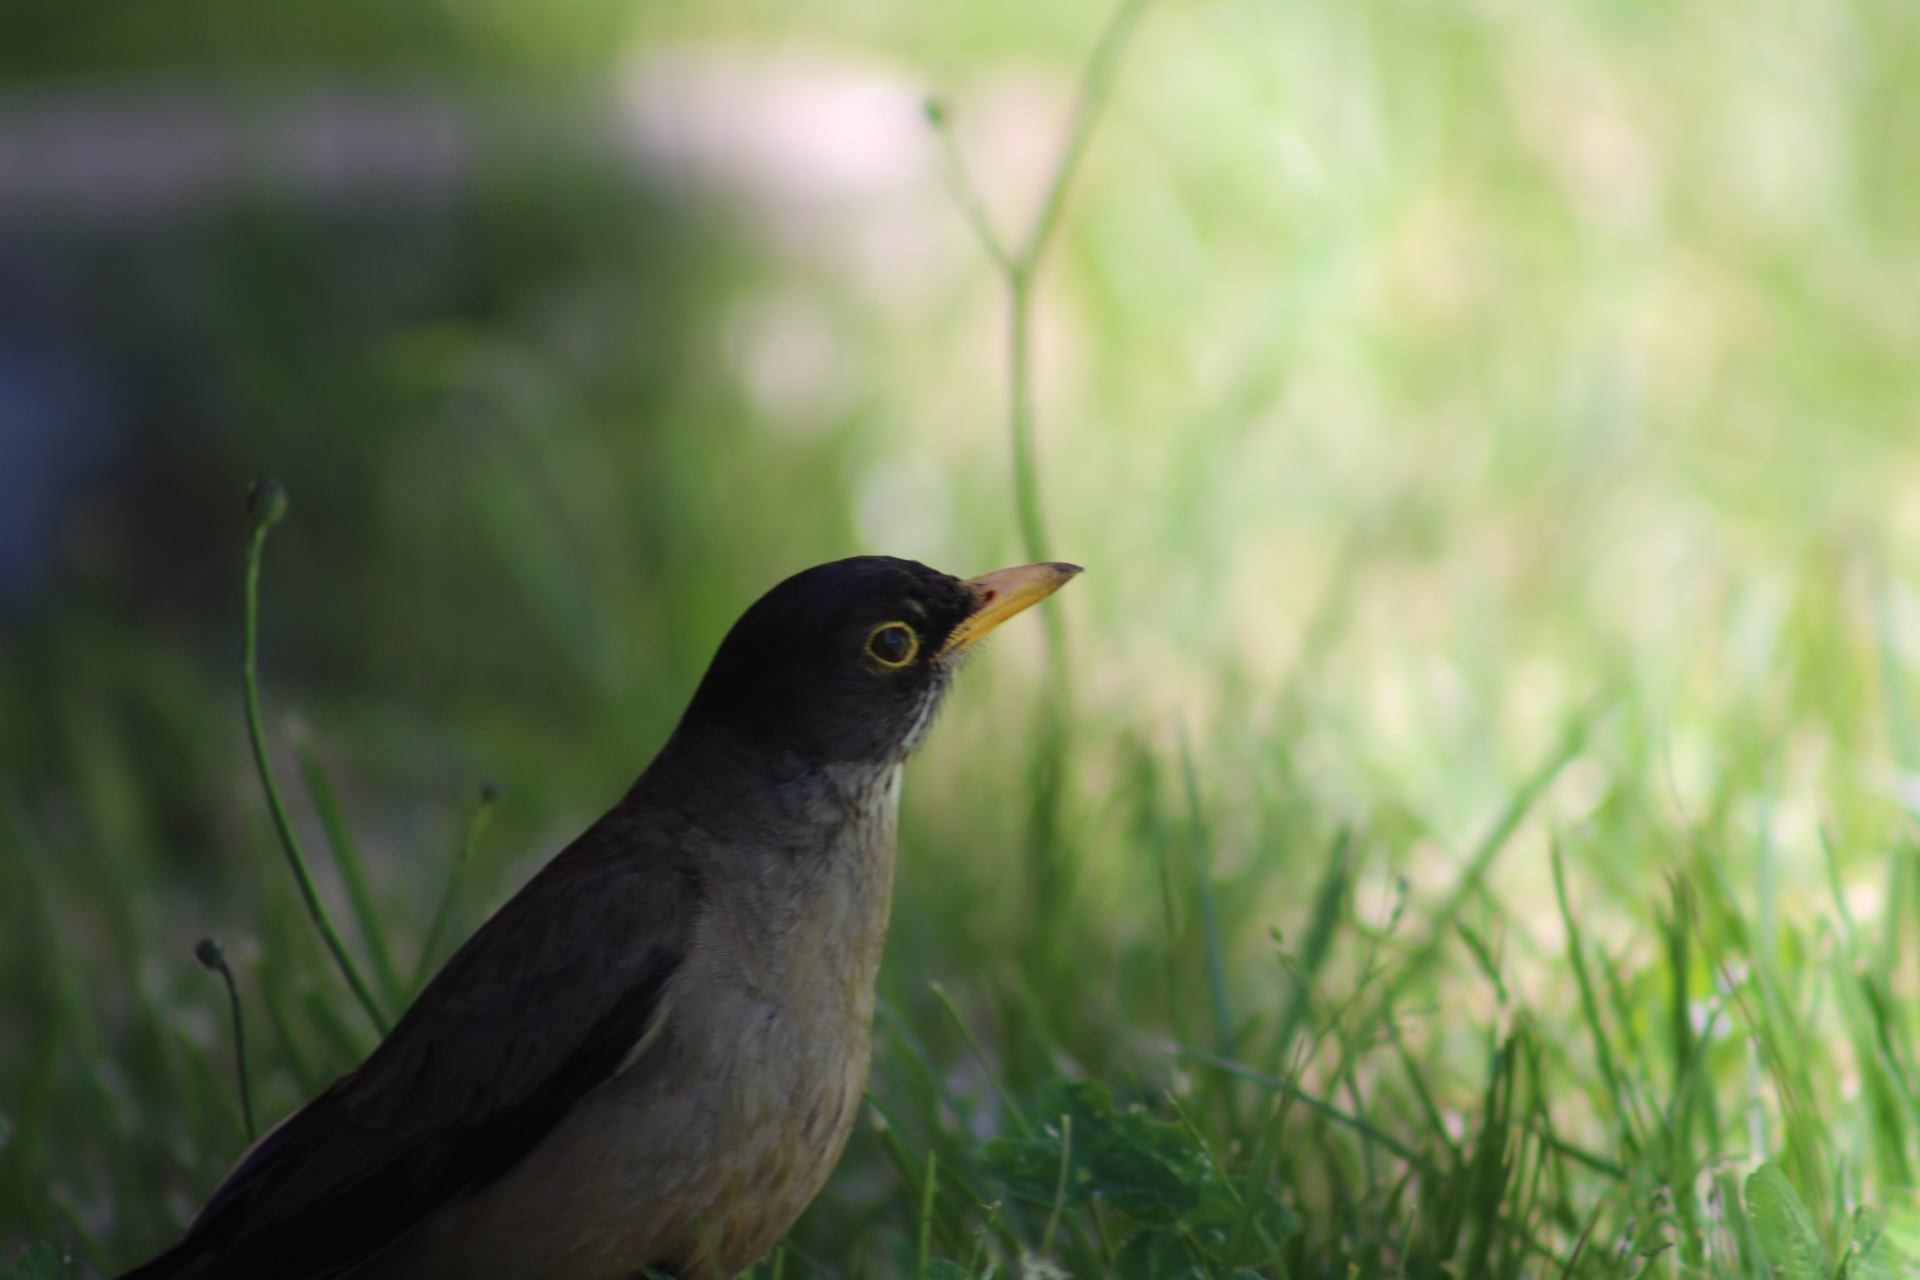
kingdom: Animalia
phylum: Chordata
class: Aves
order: Passeriformes
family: Turdidae
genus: Turdus
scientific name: Turdus falcklandii
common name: Austral thrush
